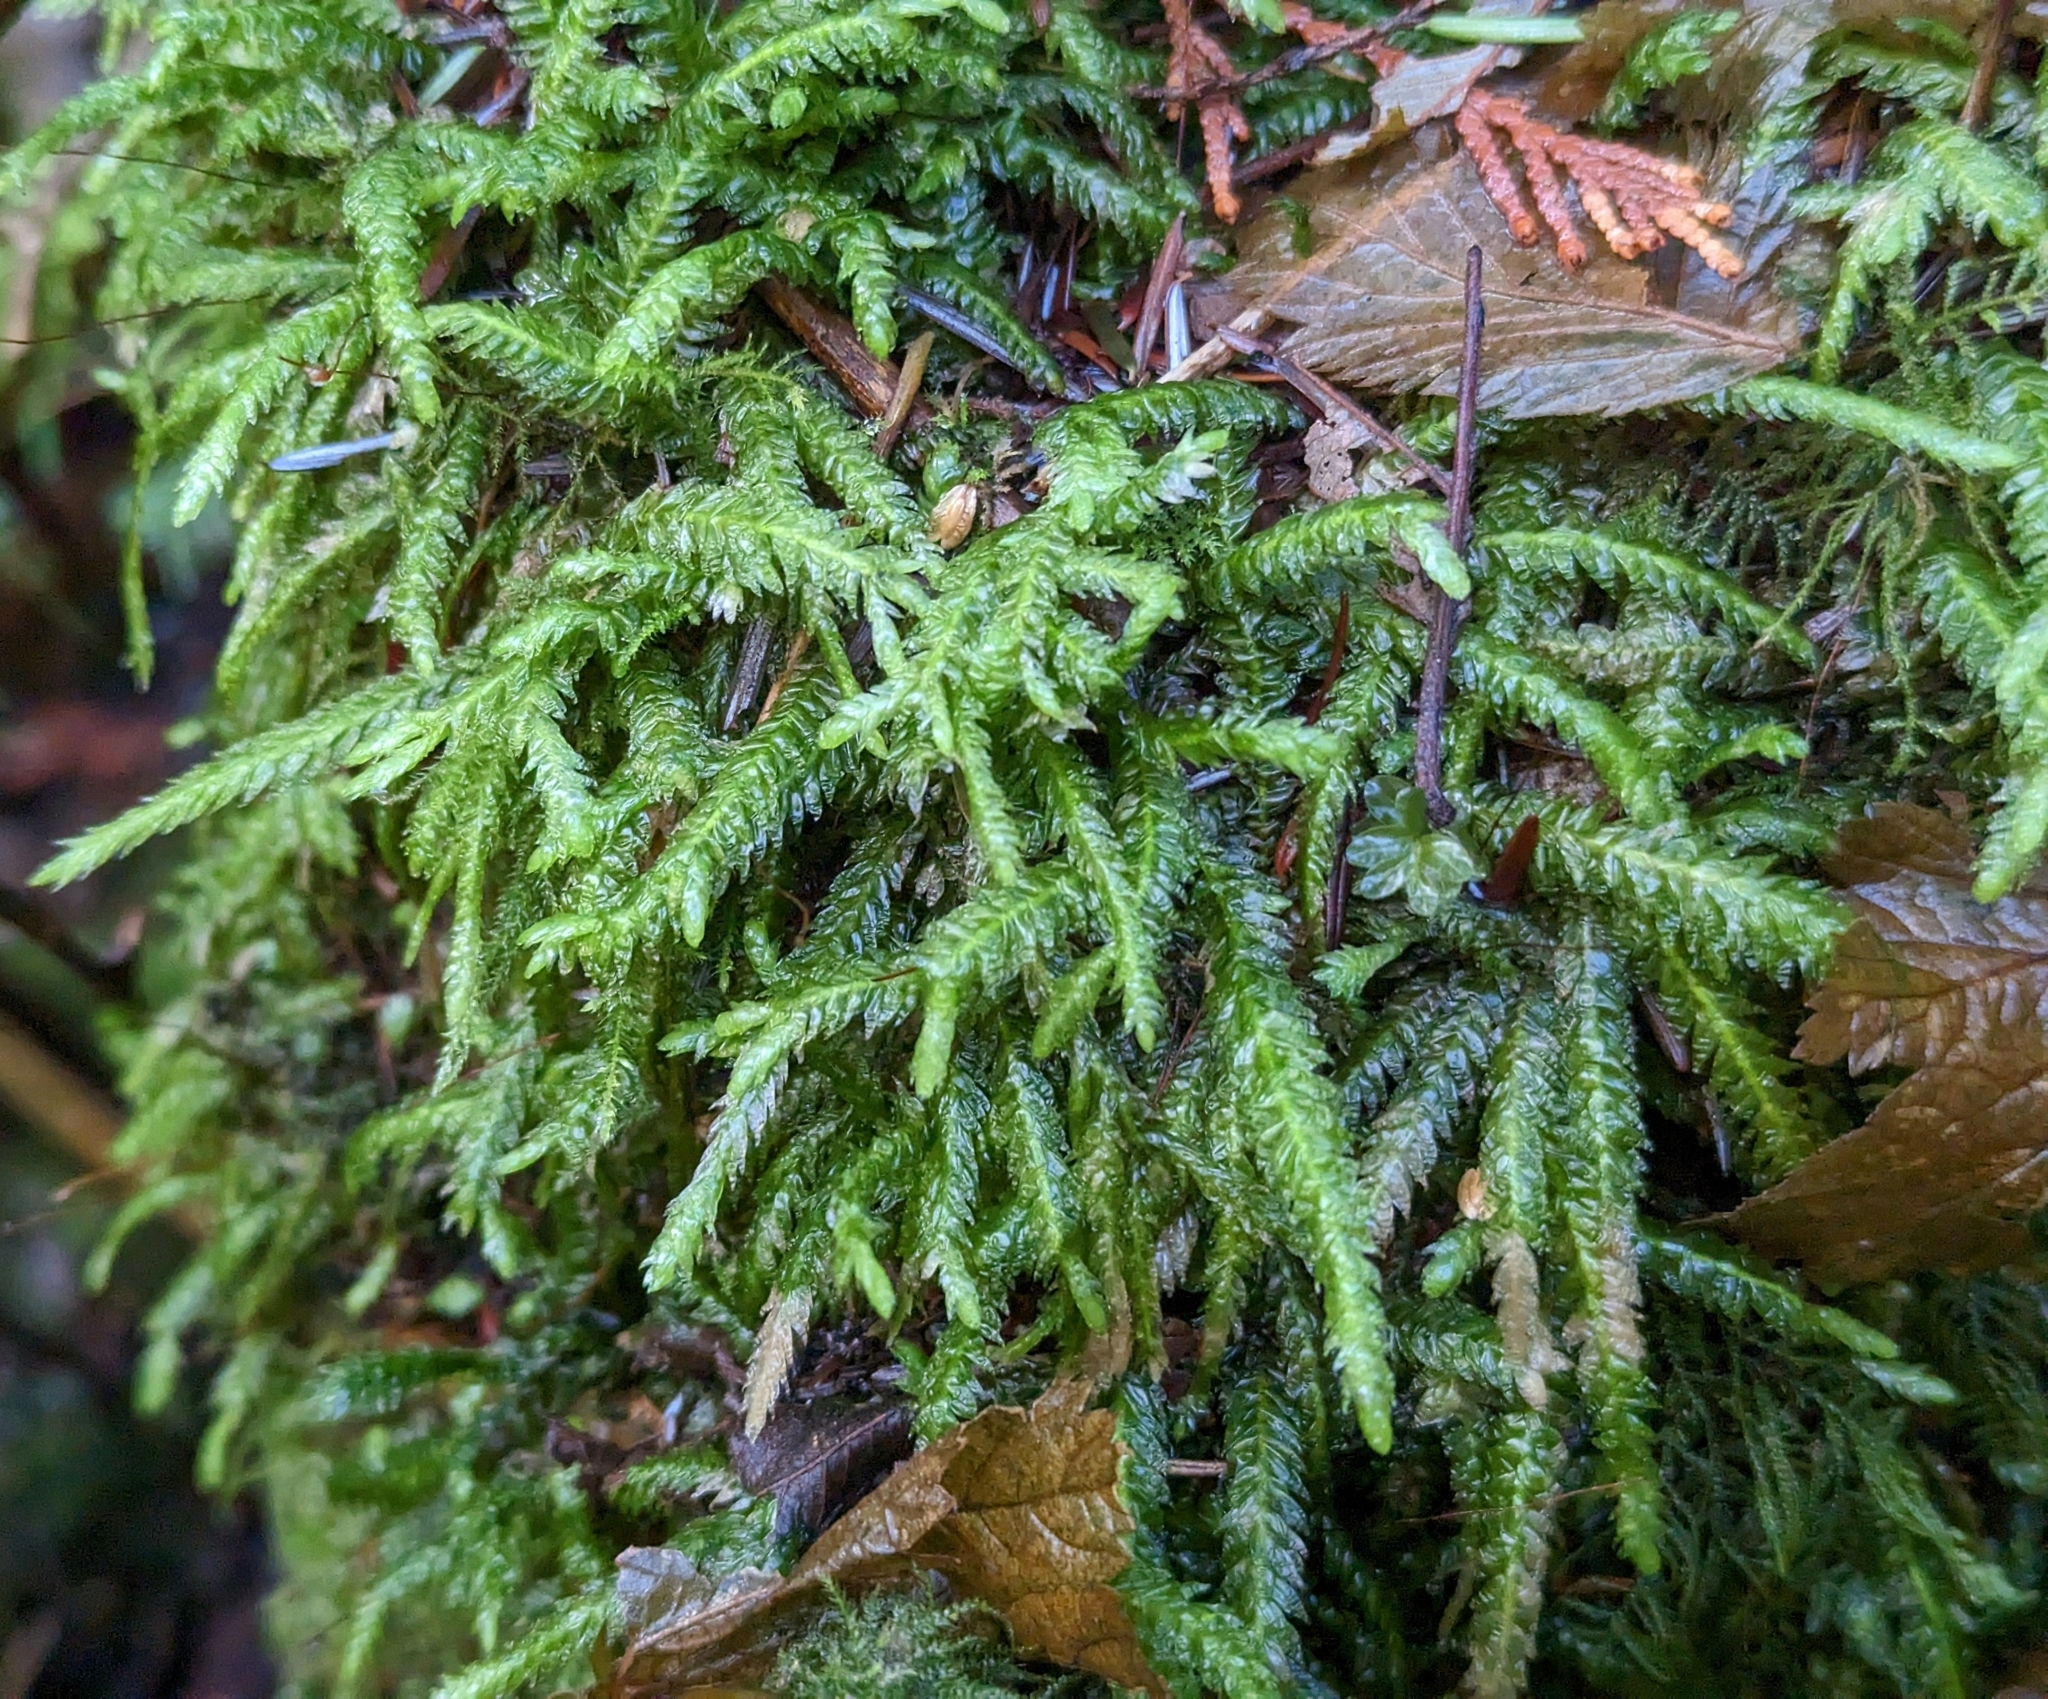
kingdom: Plantae
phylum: Bryophyta
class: Bryopsida
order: Hypnales
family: Plagiotheciaceae
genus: Plagiothecium
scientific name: Plagiothecium undulatum
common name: Waved silk-moss
